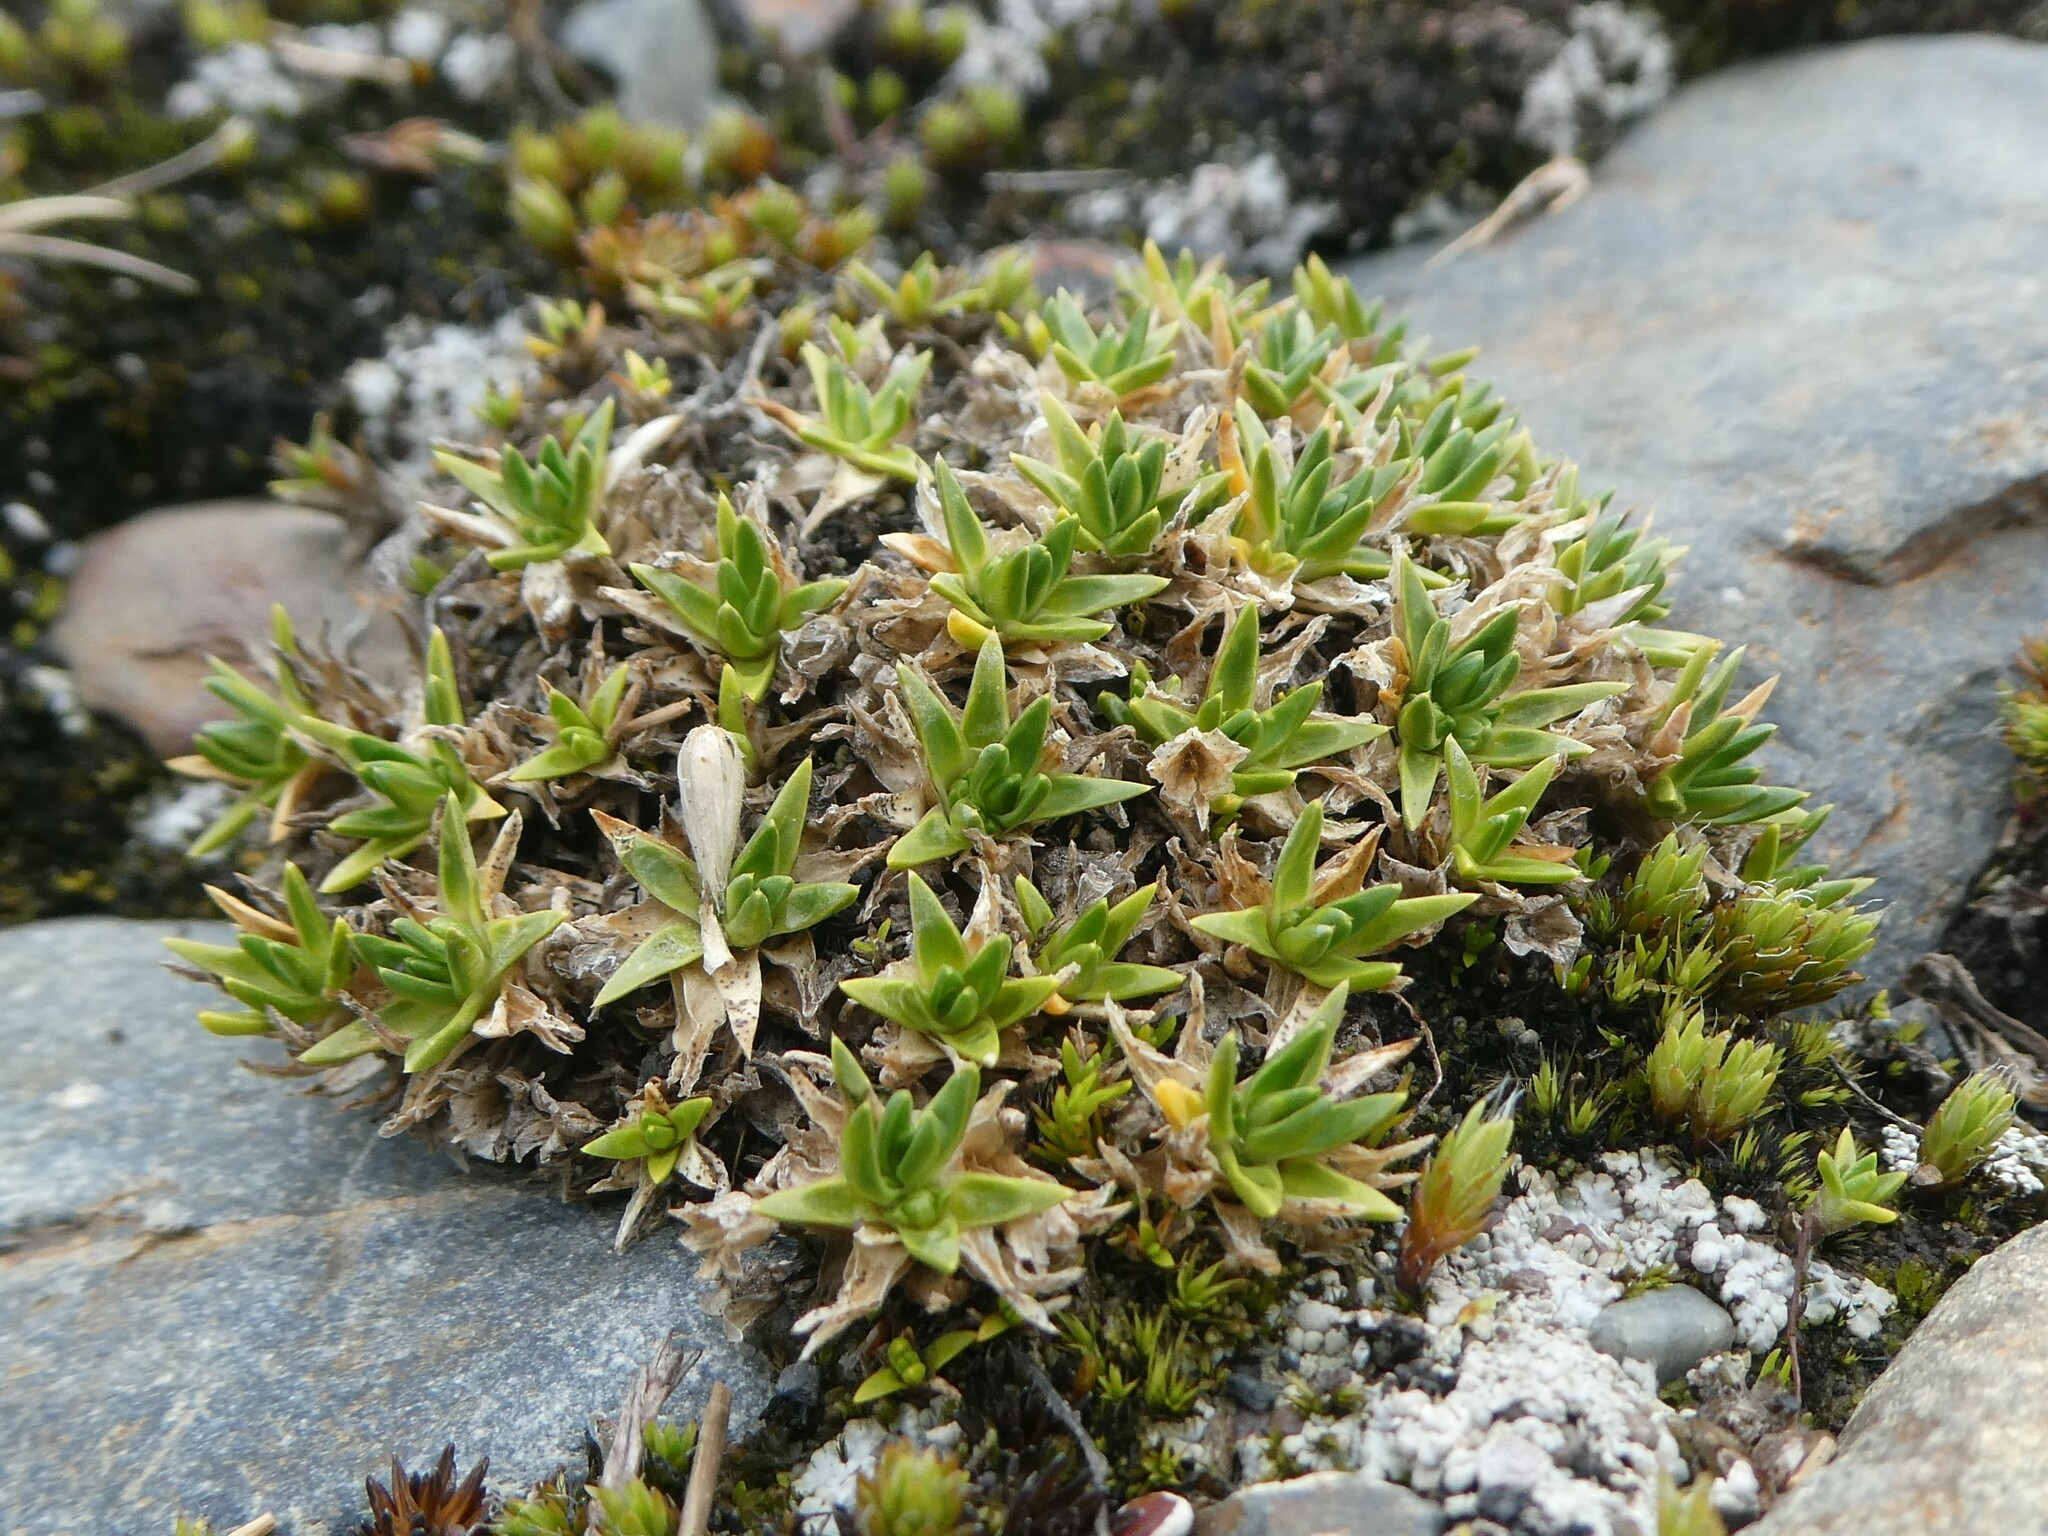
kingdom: Plantae
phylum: Tracheophyta
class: Magnoliopsida
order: Caryophyllales
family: Caryophyllaceae
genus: Colobanthus
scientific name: Colobanthus quitensis
